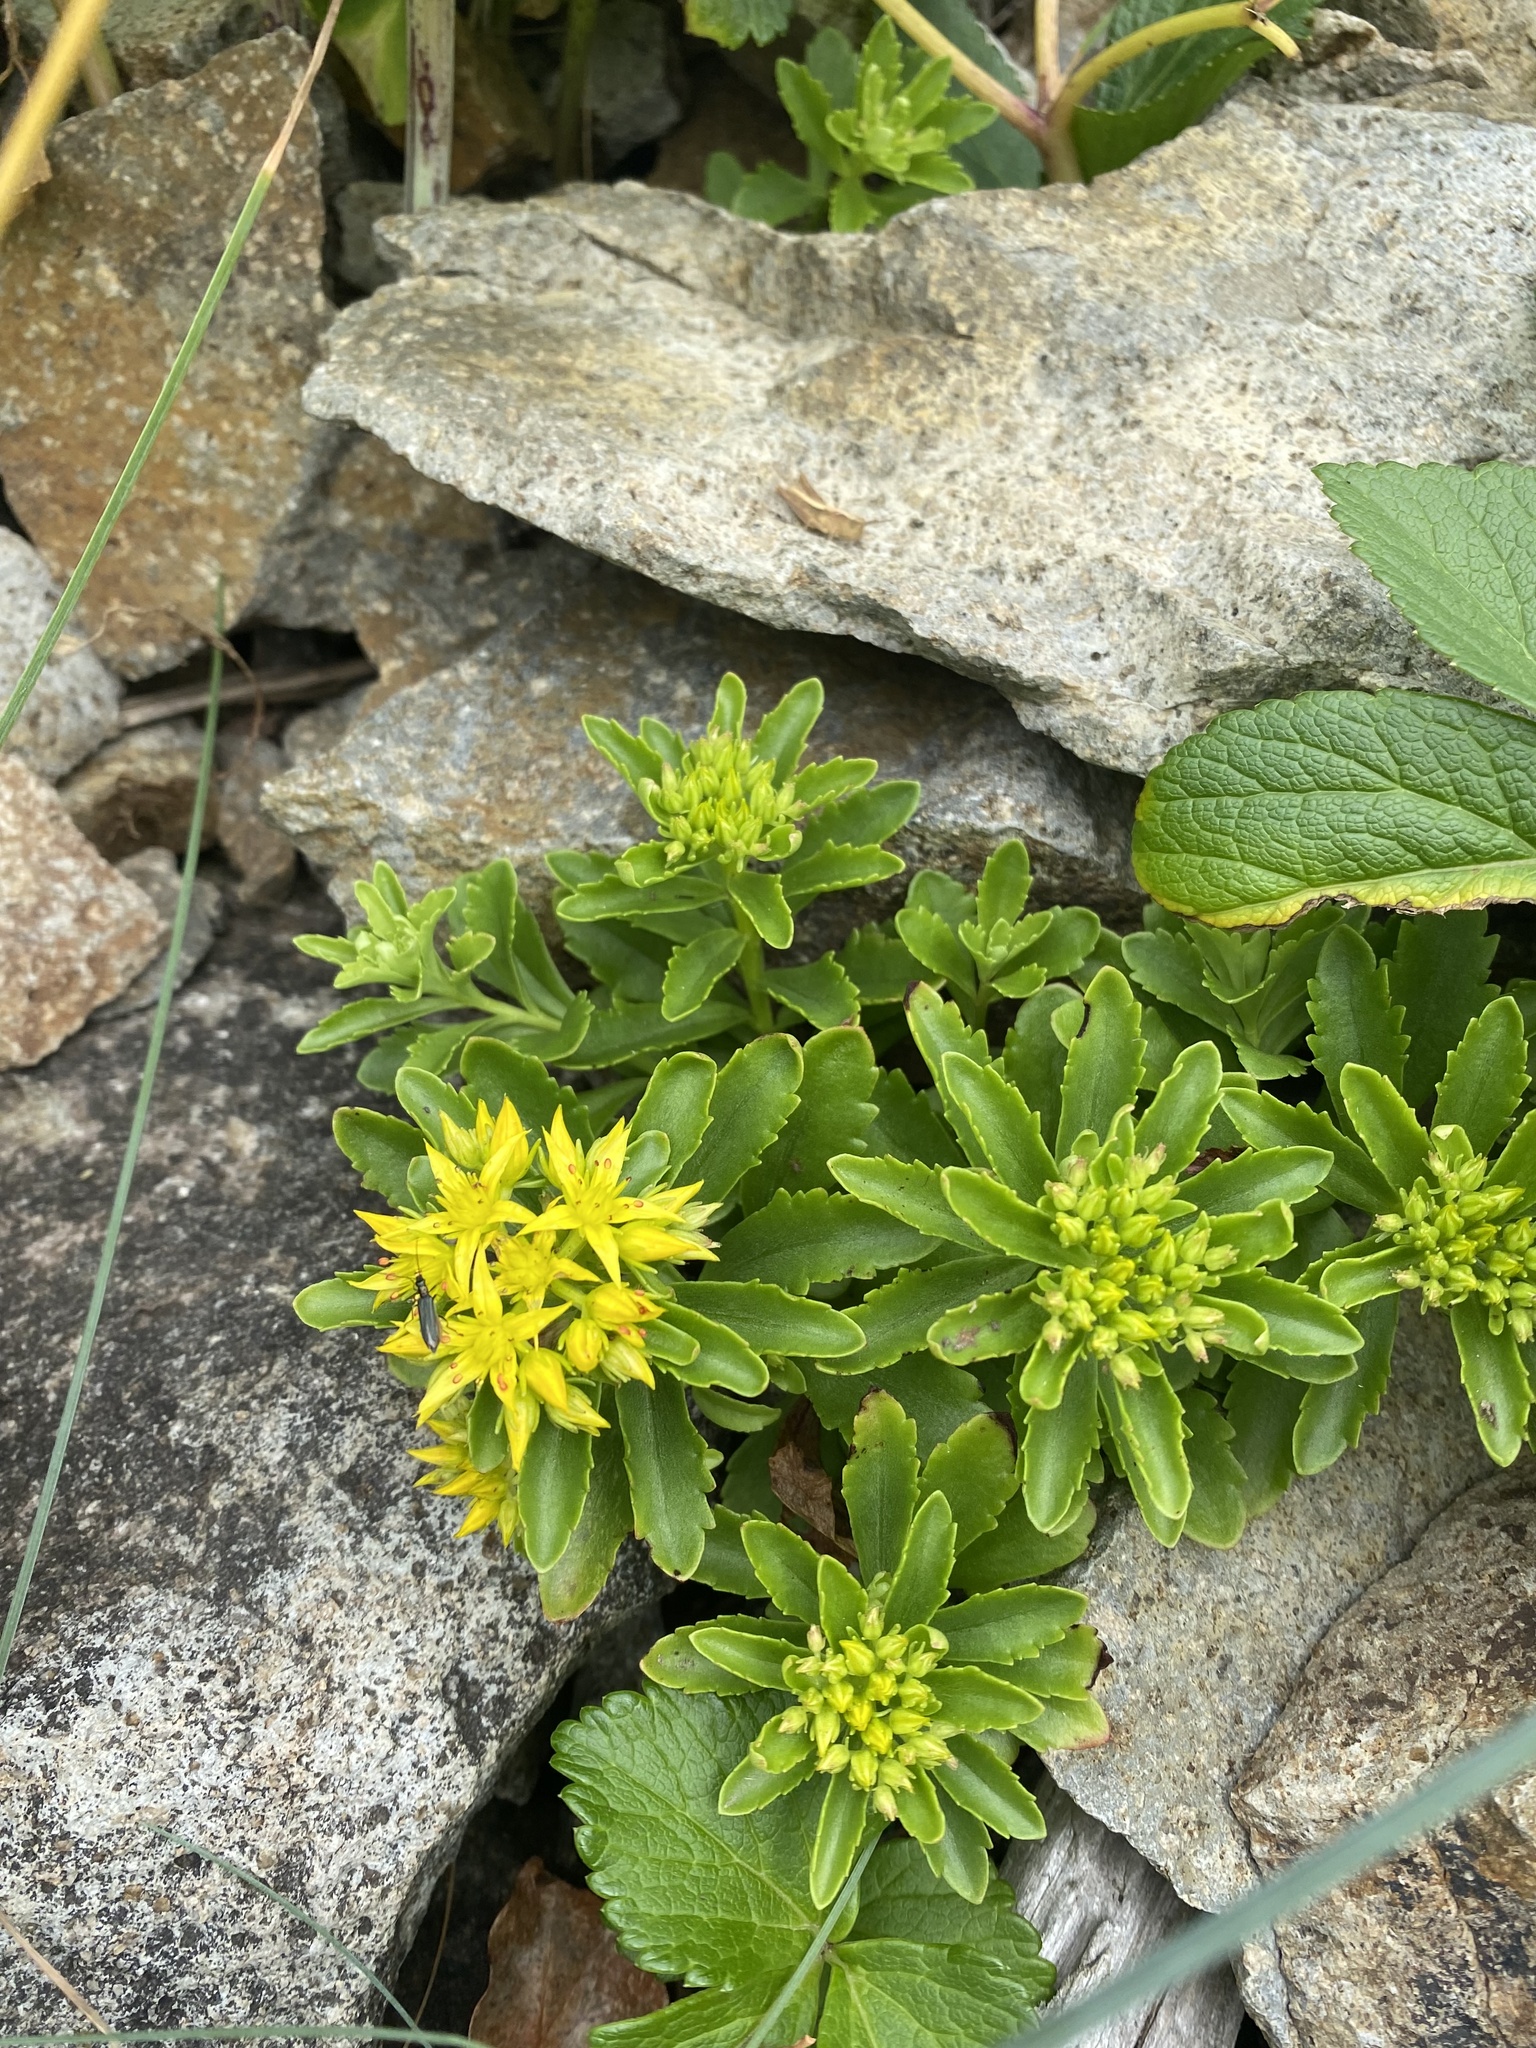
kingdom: Plantae
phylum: Tracheophyta
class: Magnoliopsida
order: Saxifragales
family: Crassulaceae
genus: Phedimus
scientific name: Phedimus kamtschaticus
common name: Orange stonecrop
